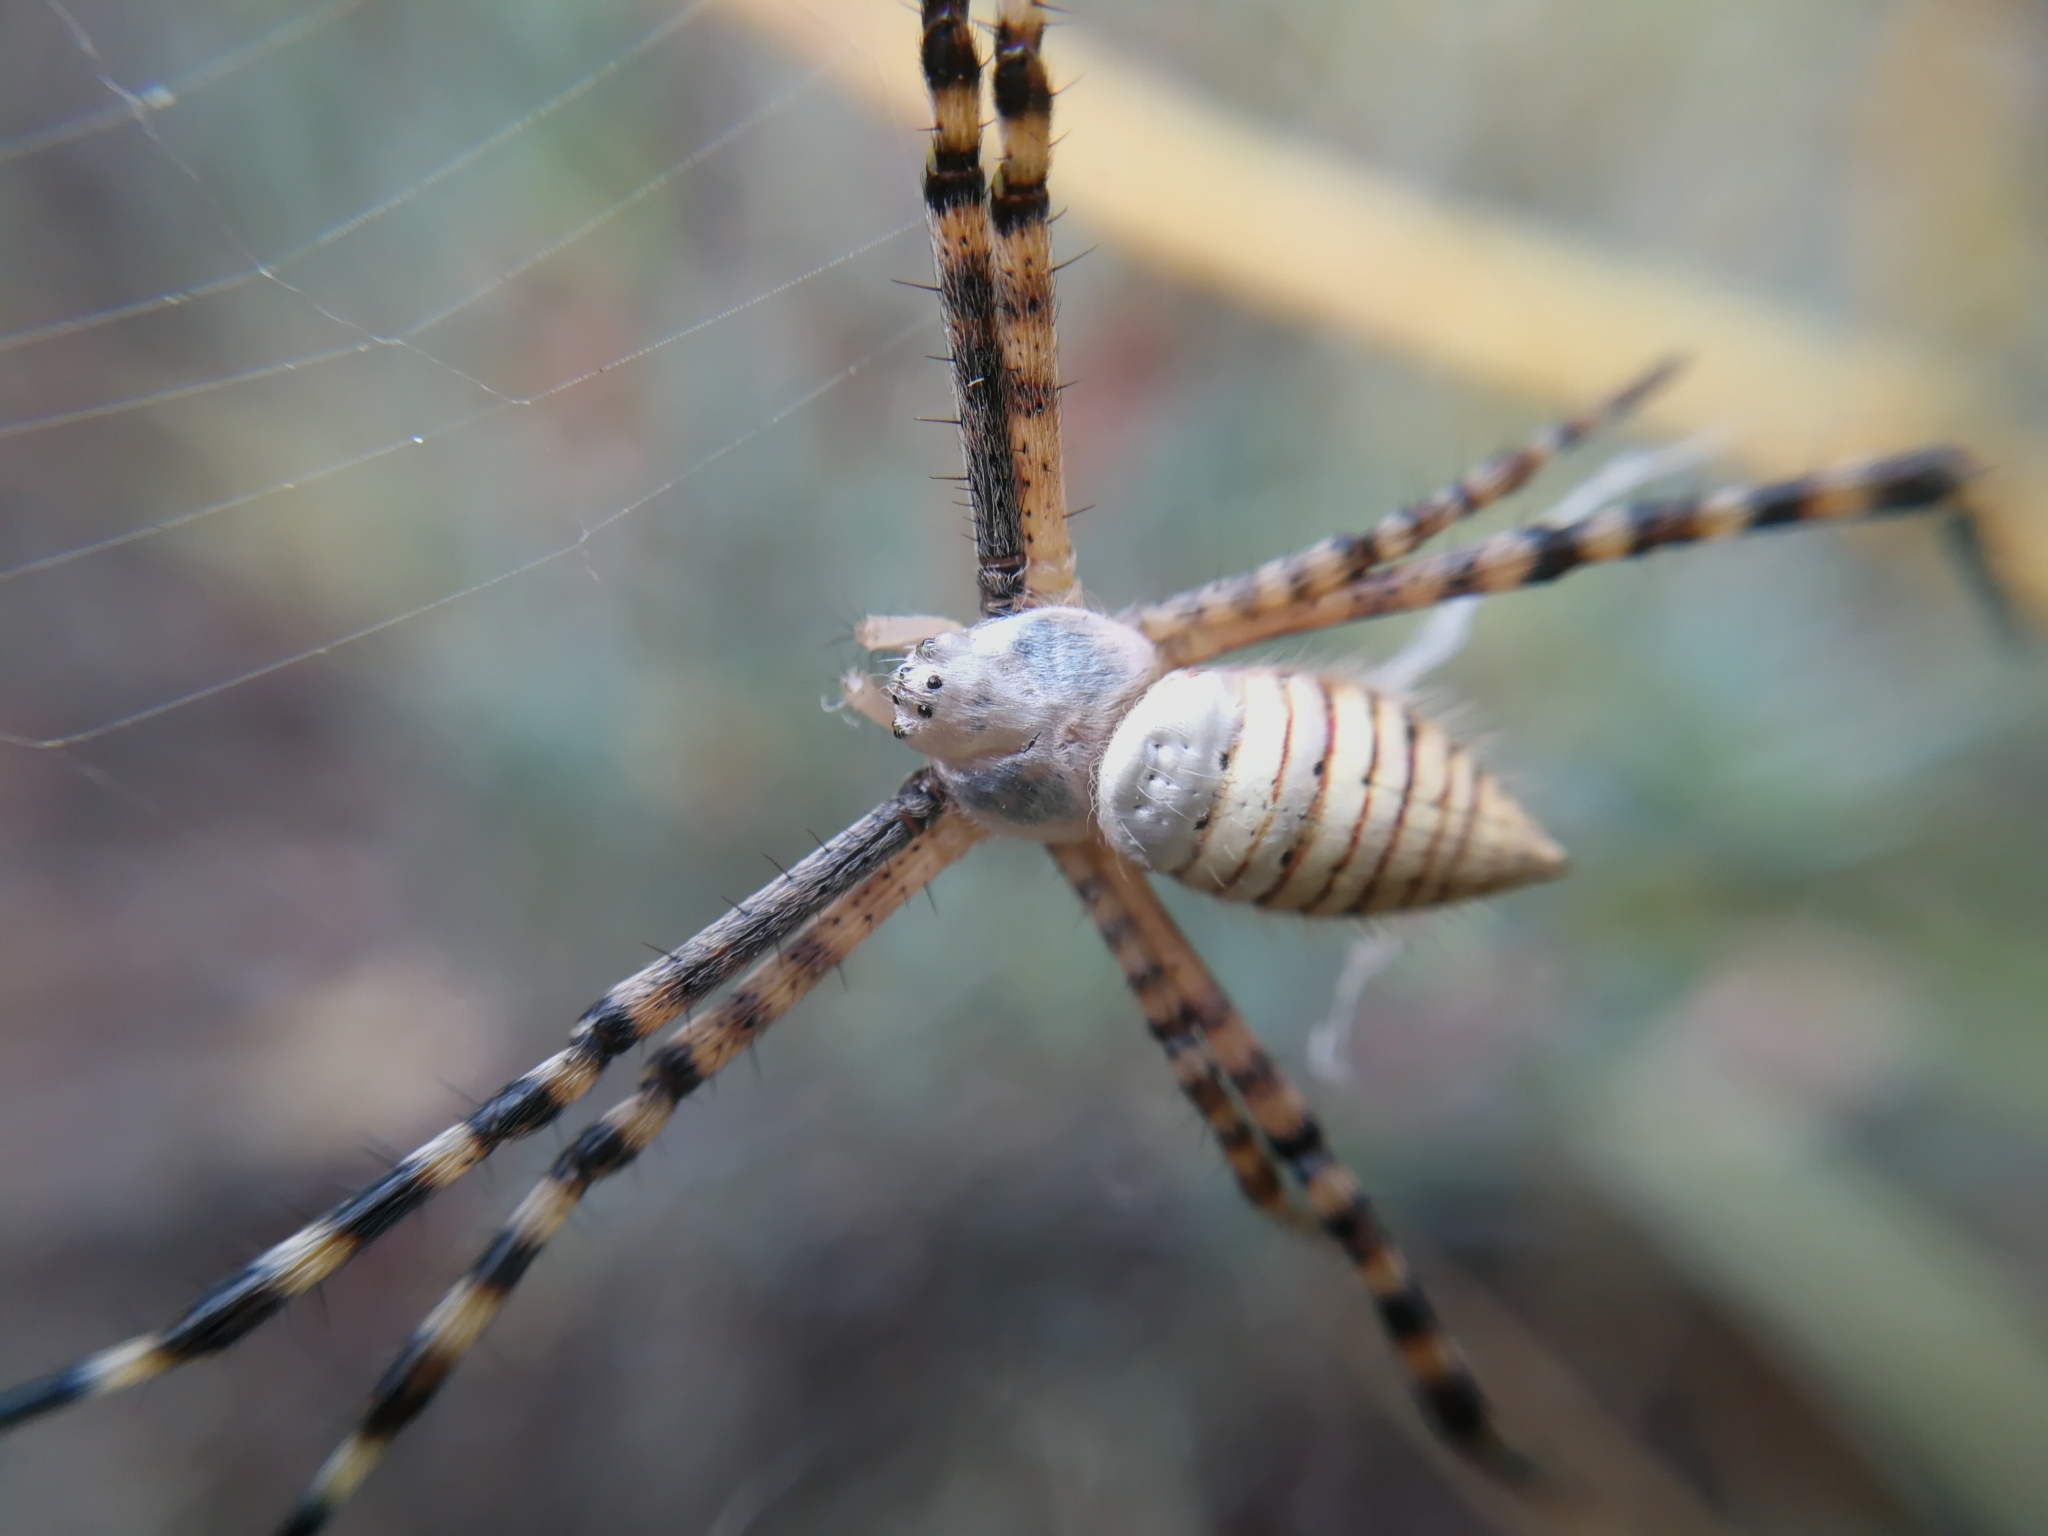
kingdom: Animalia
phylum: Arthropoda
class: Arachnida
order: Araneae
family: Araneidae
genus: Argiope
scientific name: Argiope trifasciata
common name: Banded garden spider
